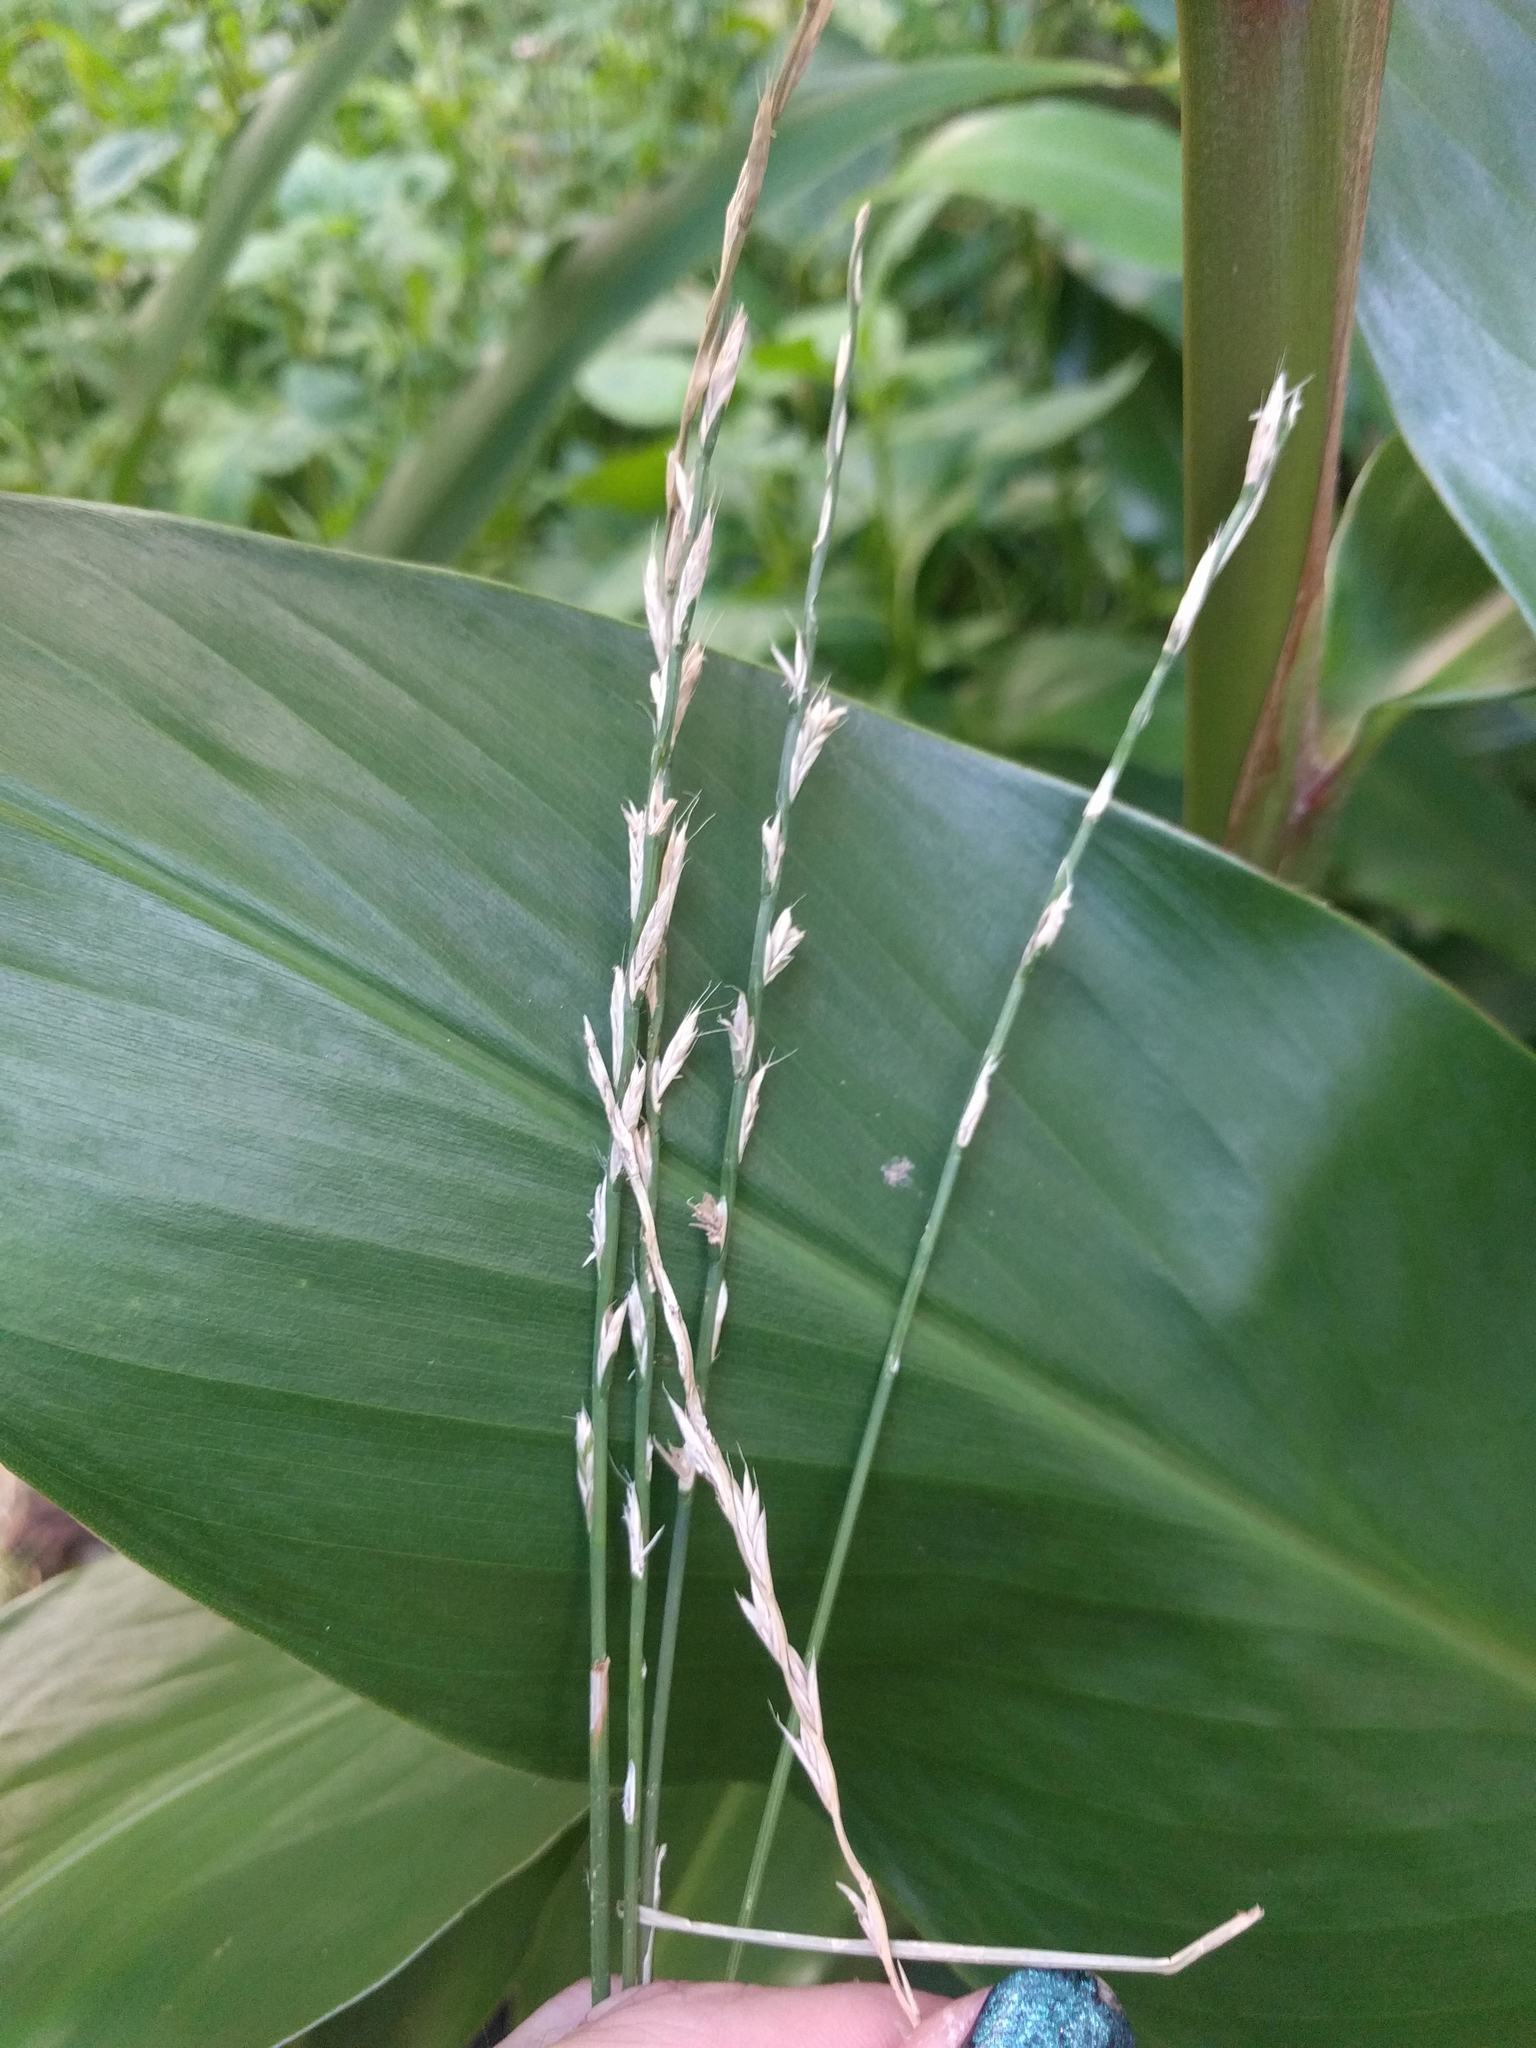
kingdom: Plantae
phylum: Tracheophyta
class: Liliopsida
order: Poales
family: Poaceae
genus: Lolium
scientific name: Lolium multiflorum
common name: Annual ryegrass
